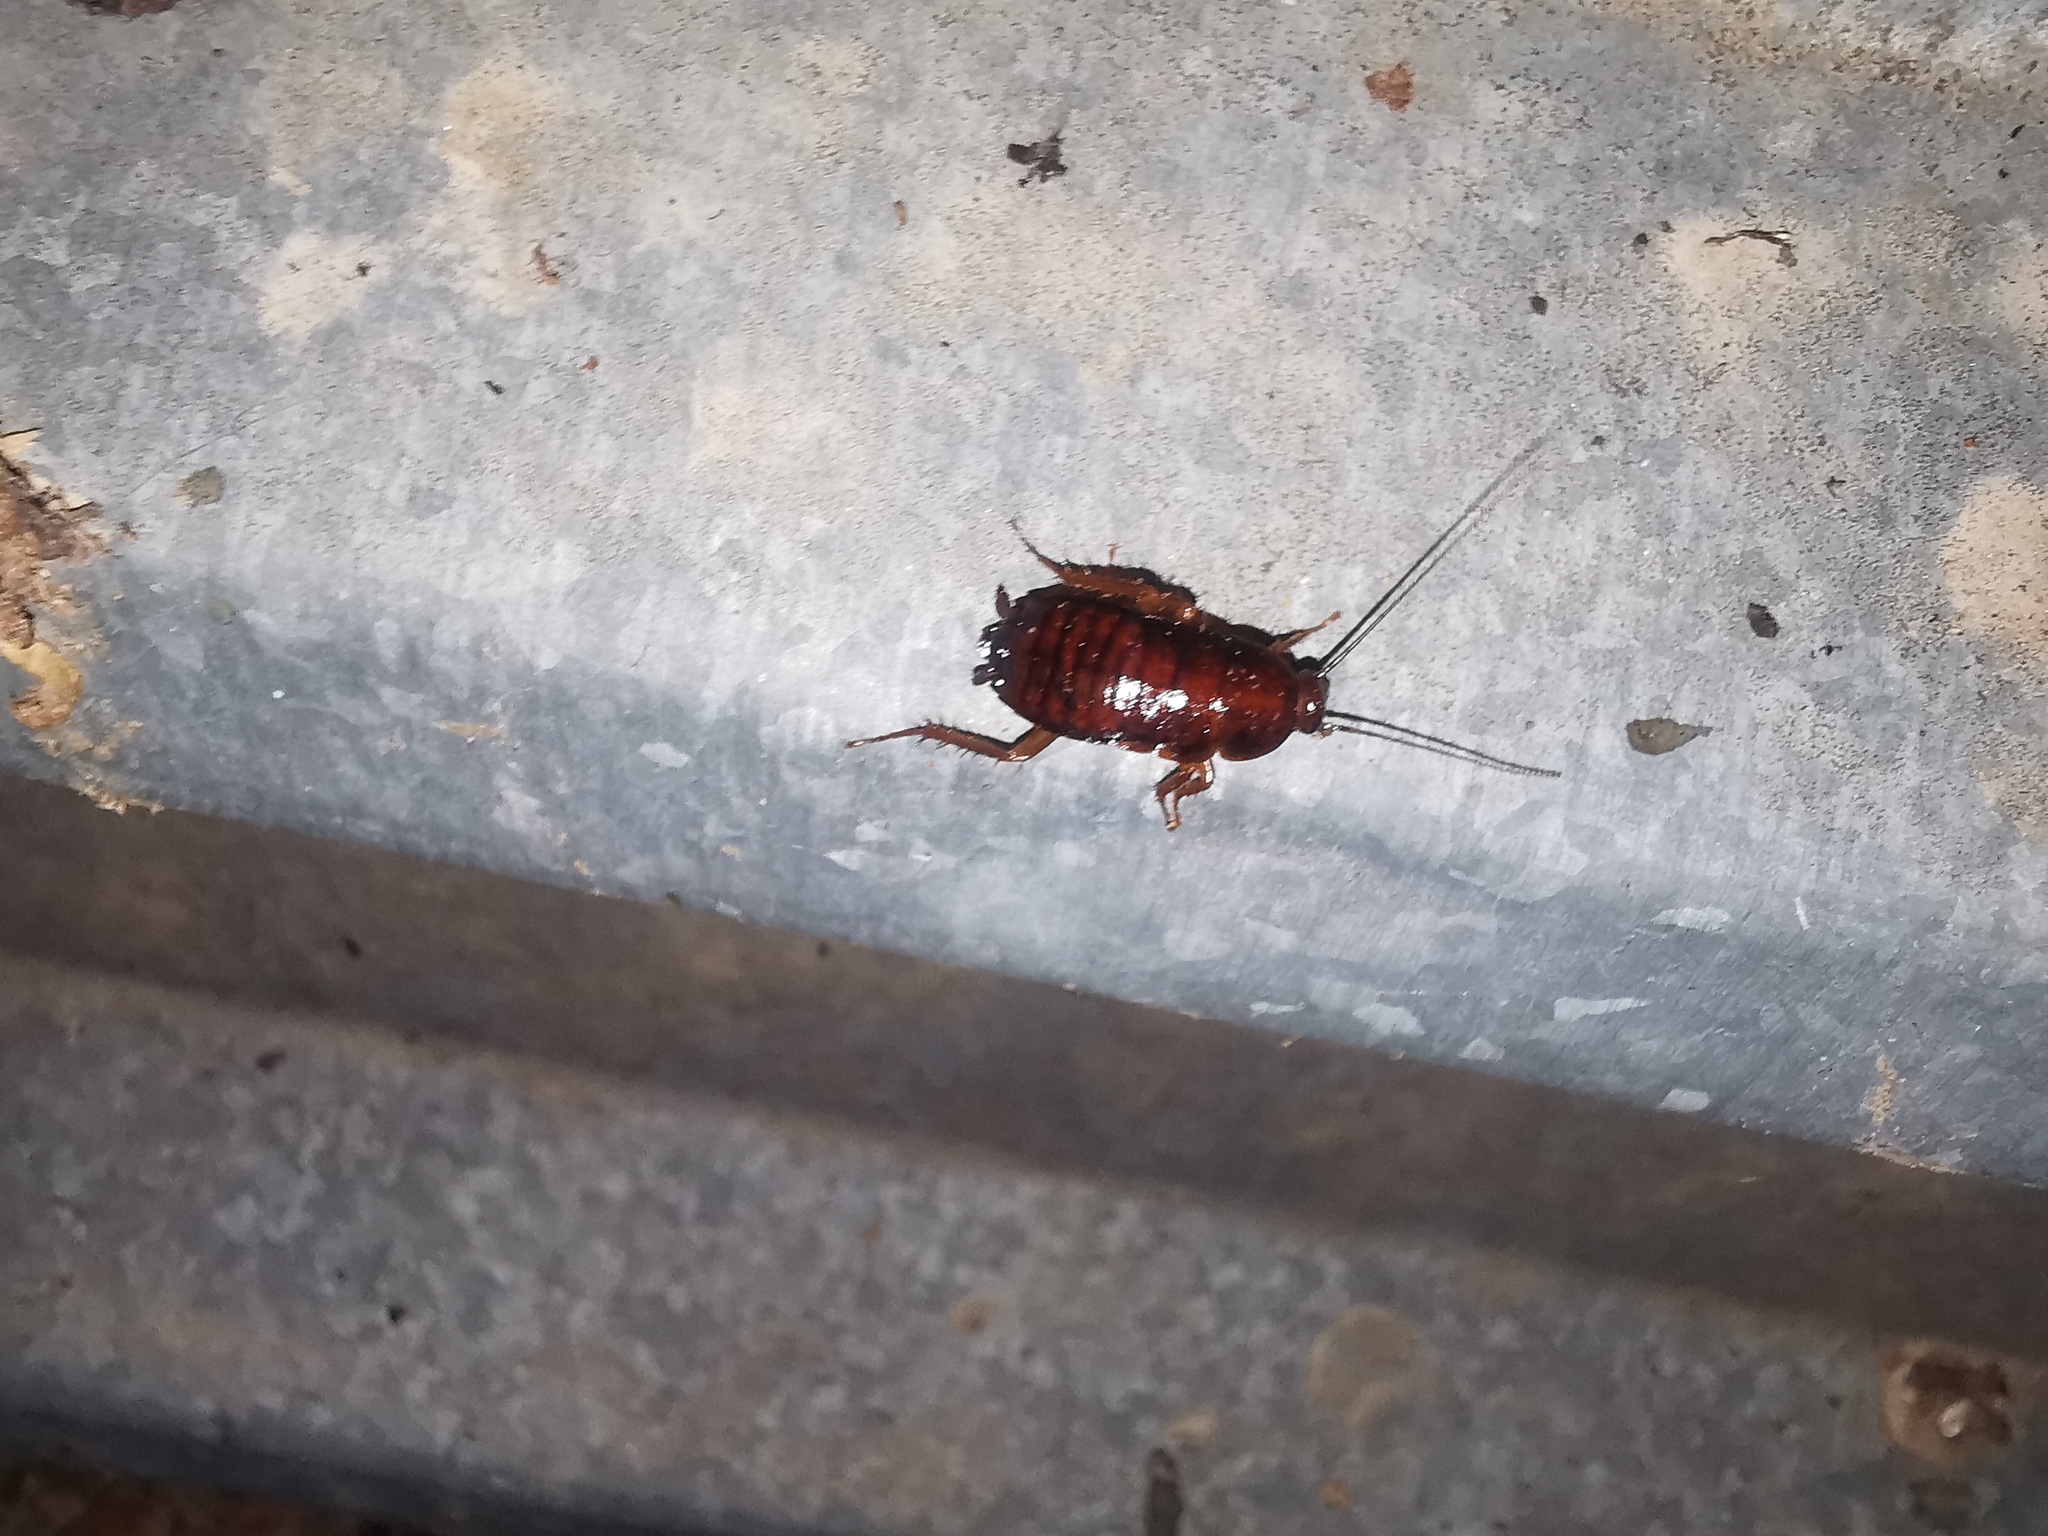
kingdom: Animalia
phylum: Arthropoda
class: Insecta
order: Blattodea
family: Blattidae
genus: Blatta
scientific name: Blatta orientalis
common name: Oriental cockroach
